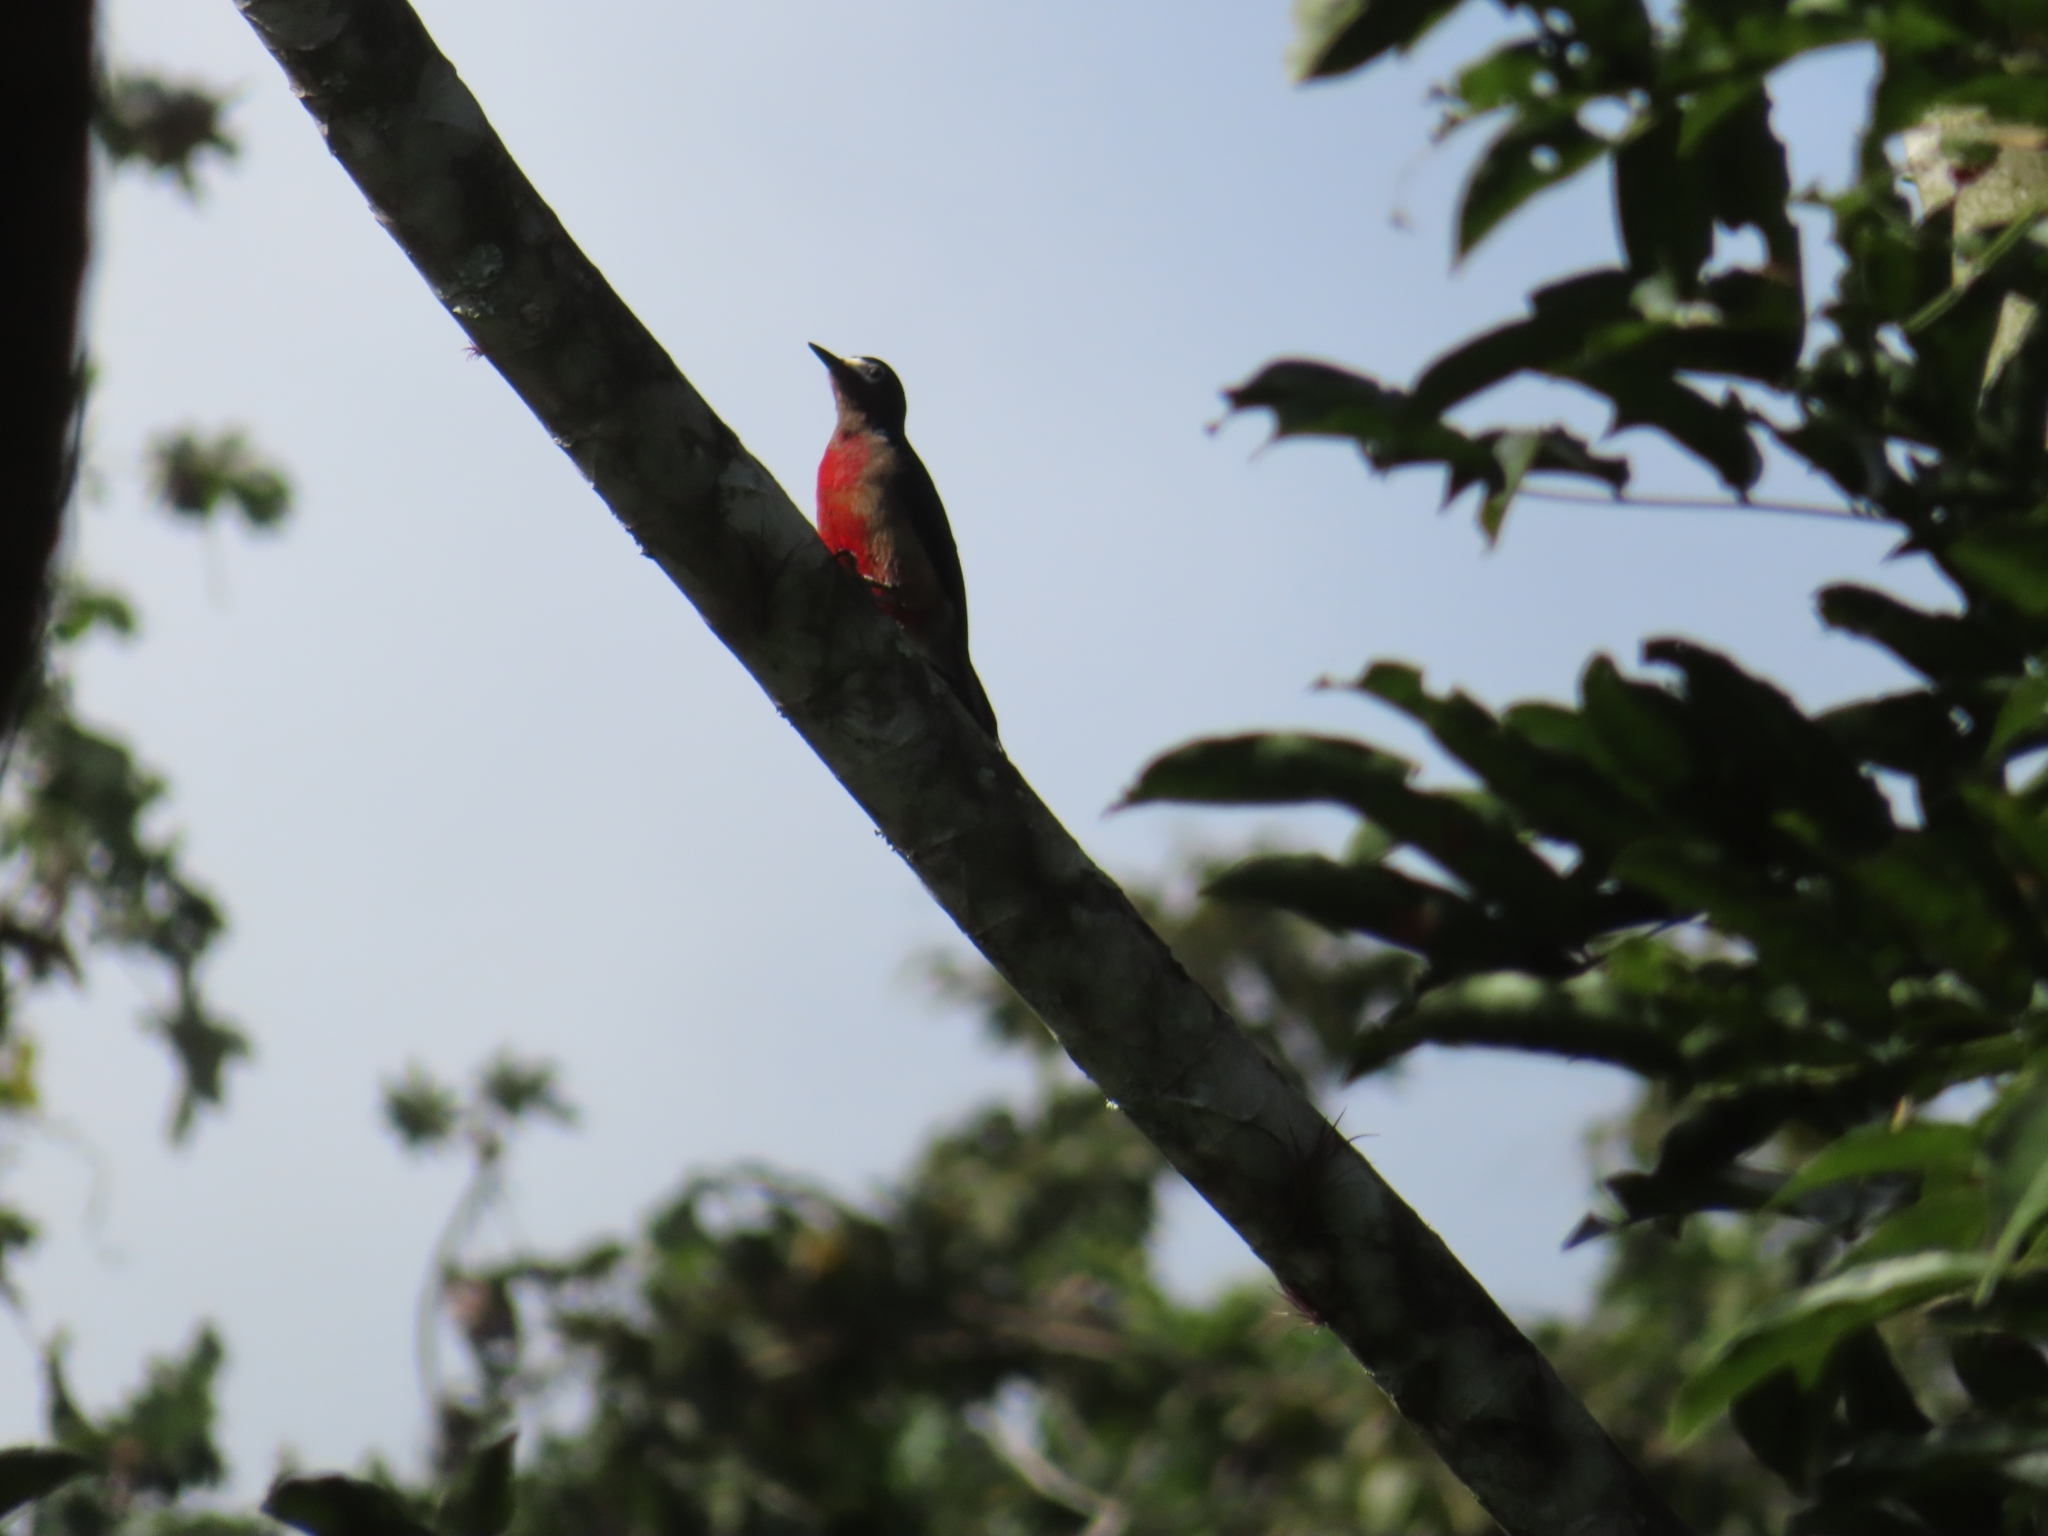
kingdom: Animalia
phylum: Chordata
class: Aves
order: Piciformes
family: Picidae
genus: Melanerpes
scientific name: Melanerpes portoricensis
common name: Puerto rican woodpecker
